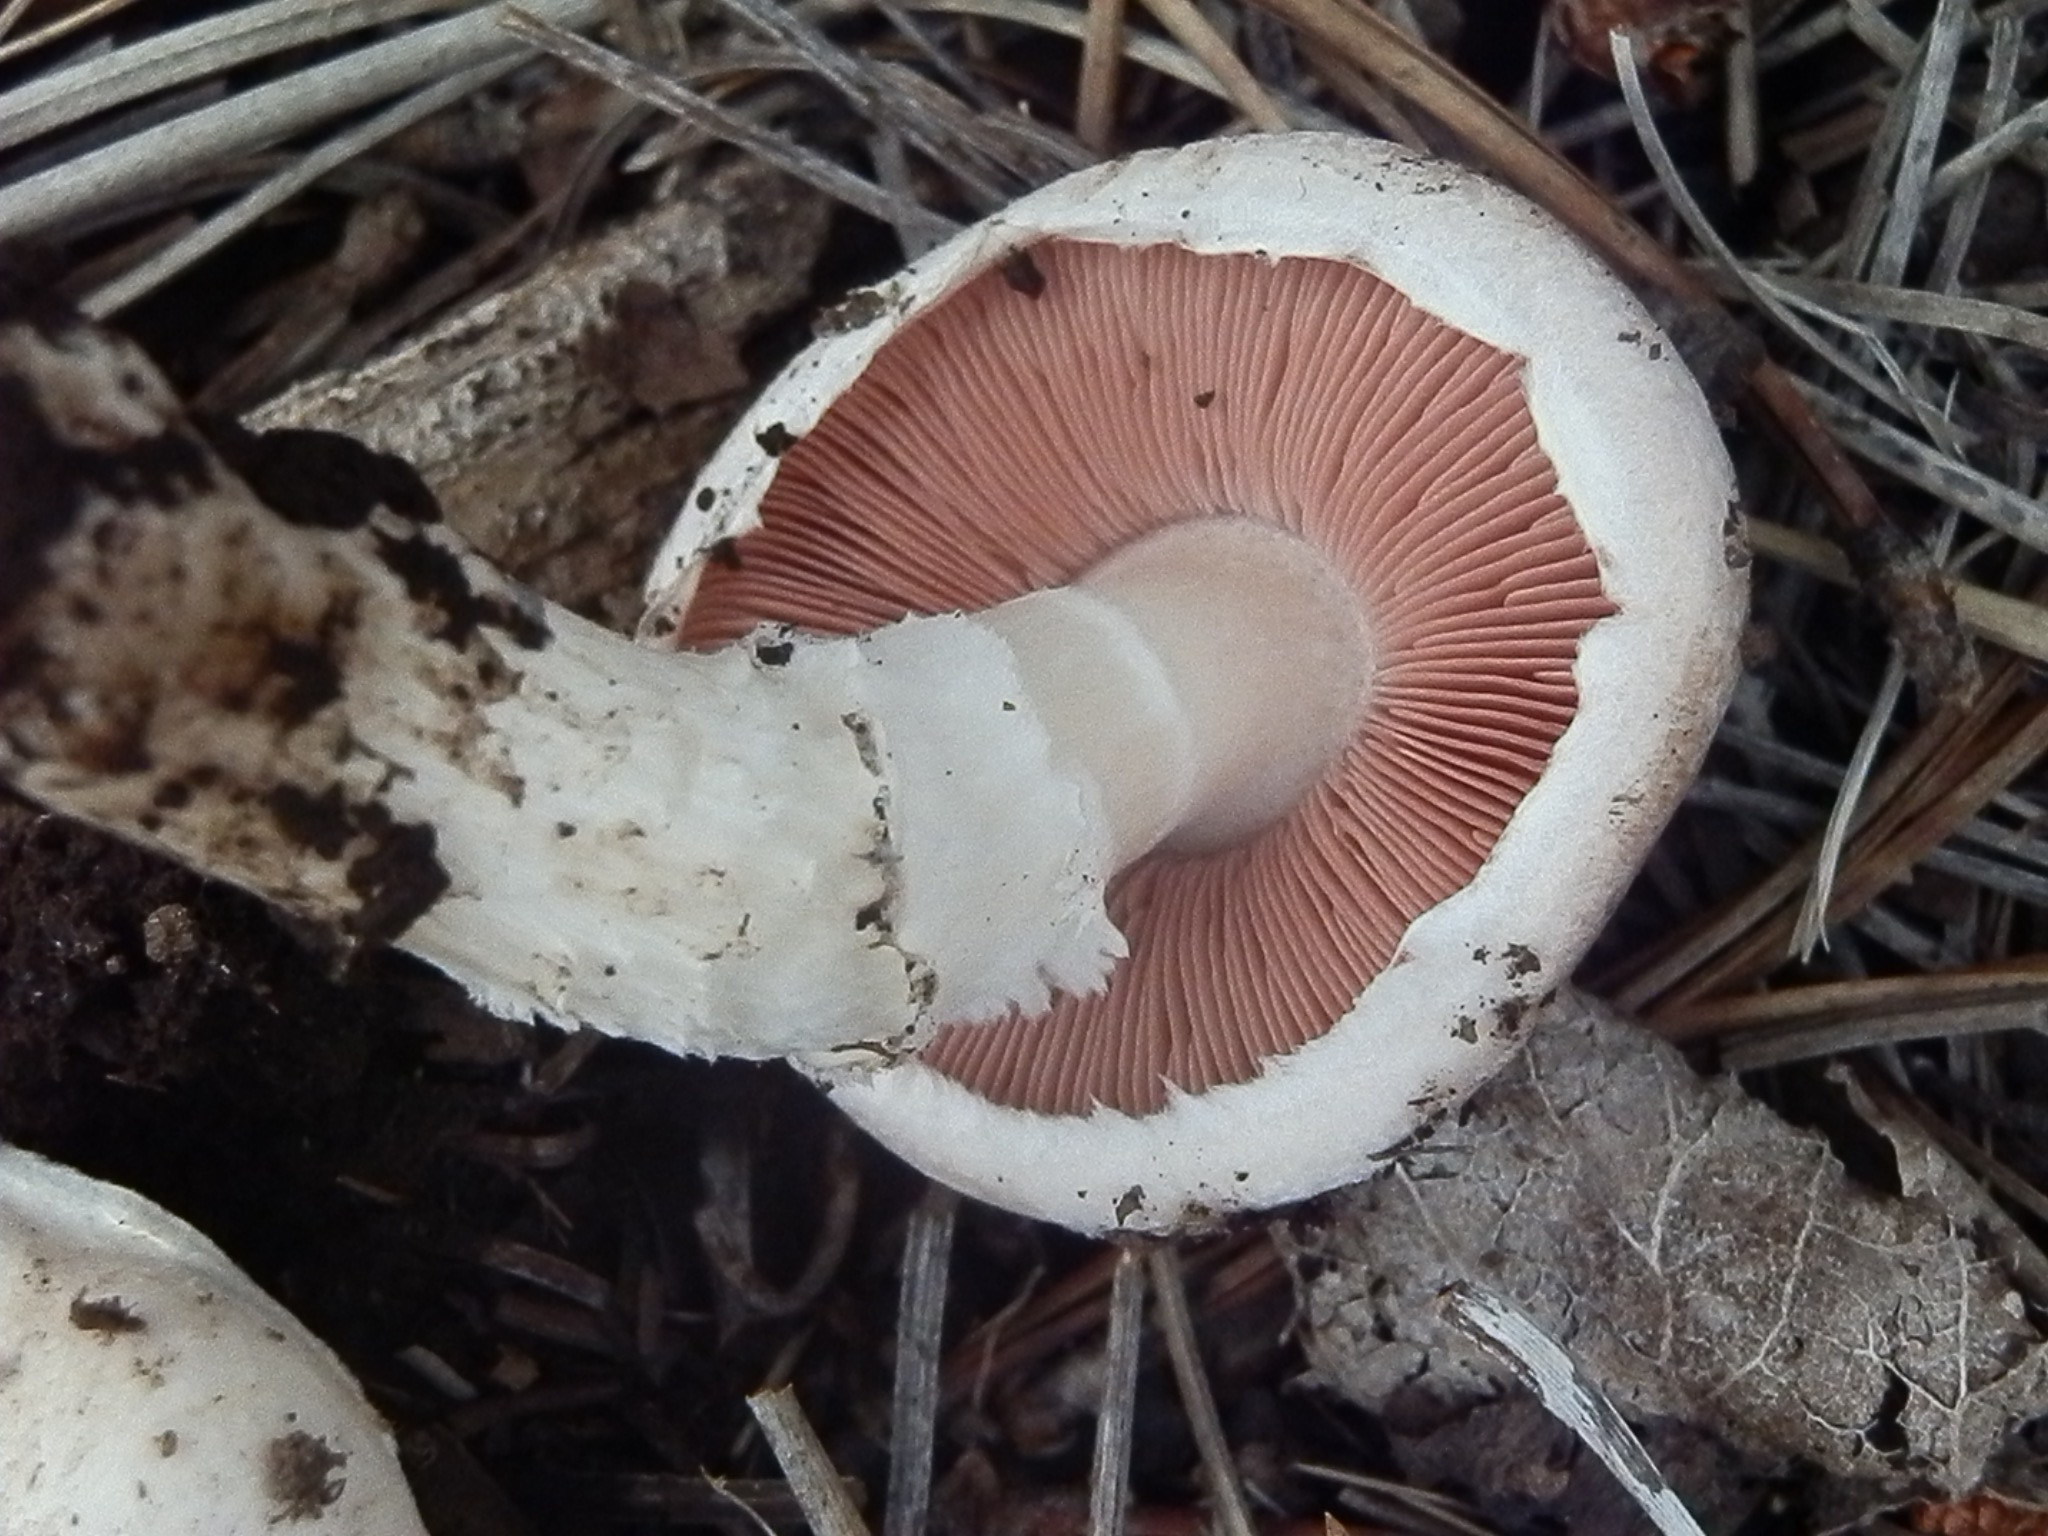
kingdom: Fungi
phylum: Basidiomycota
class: Agaricomycetes
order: Agaricales
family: Agaricaceae
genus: Agaricus
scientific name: Agaricus porphyrocephalus
